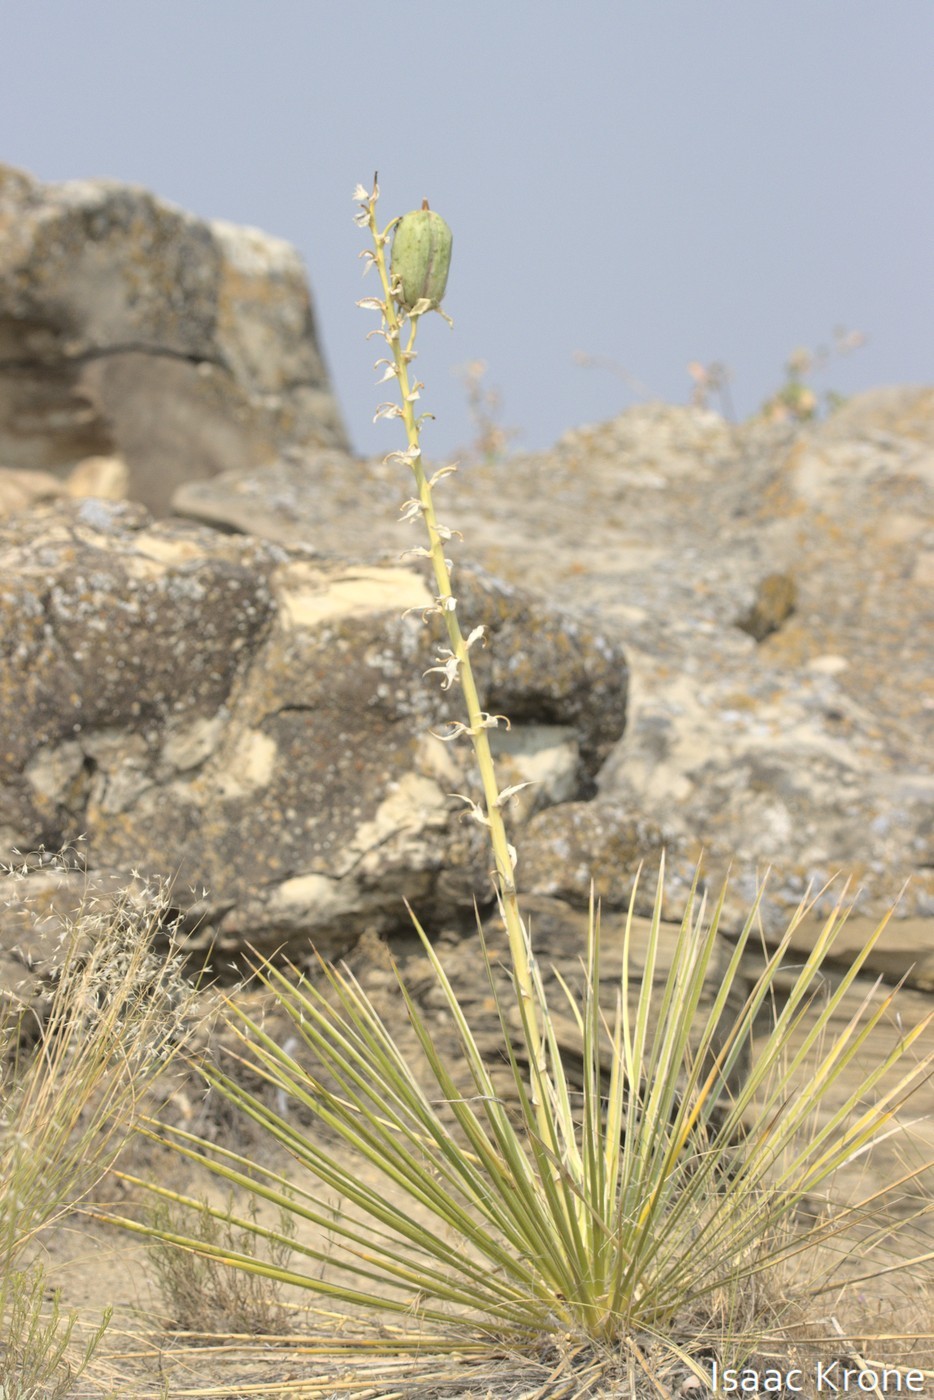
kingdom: Plantae
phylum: Tracheophyta
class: Liliopsida
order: Asparagales
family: Asparagaceae
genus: Yucca
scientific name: Yucca glauca
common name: Great plains yucca
